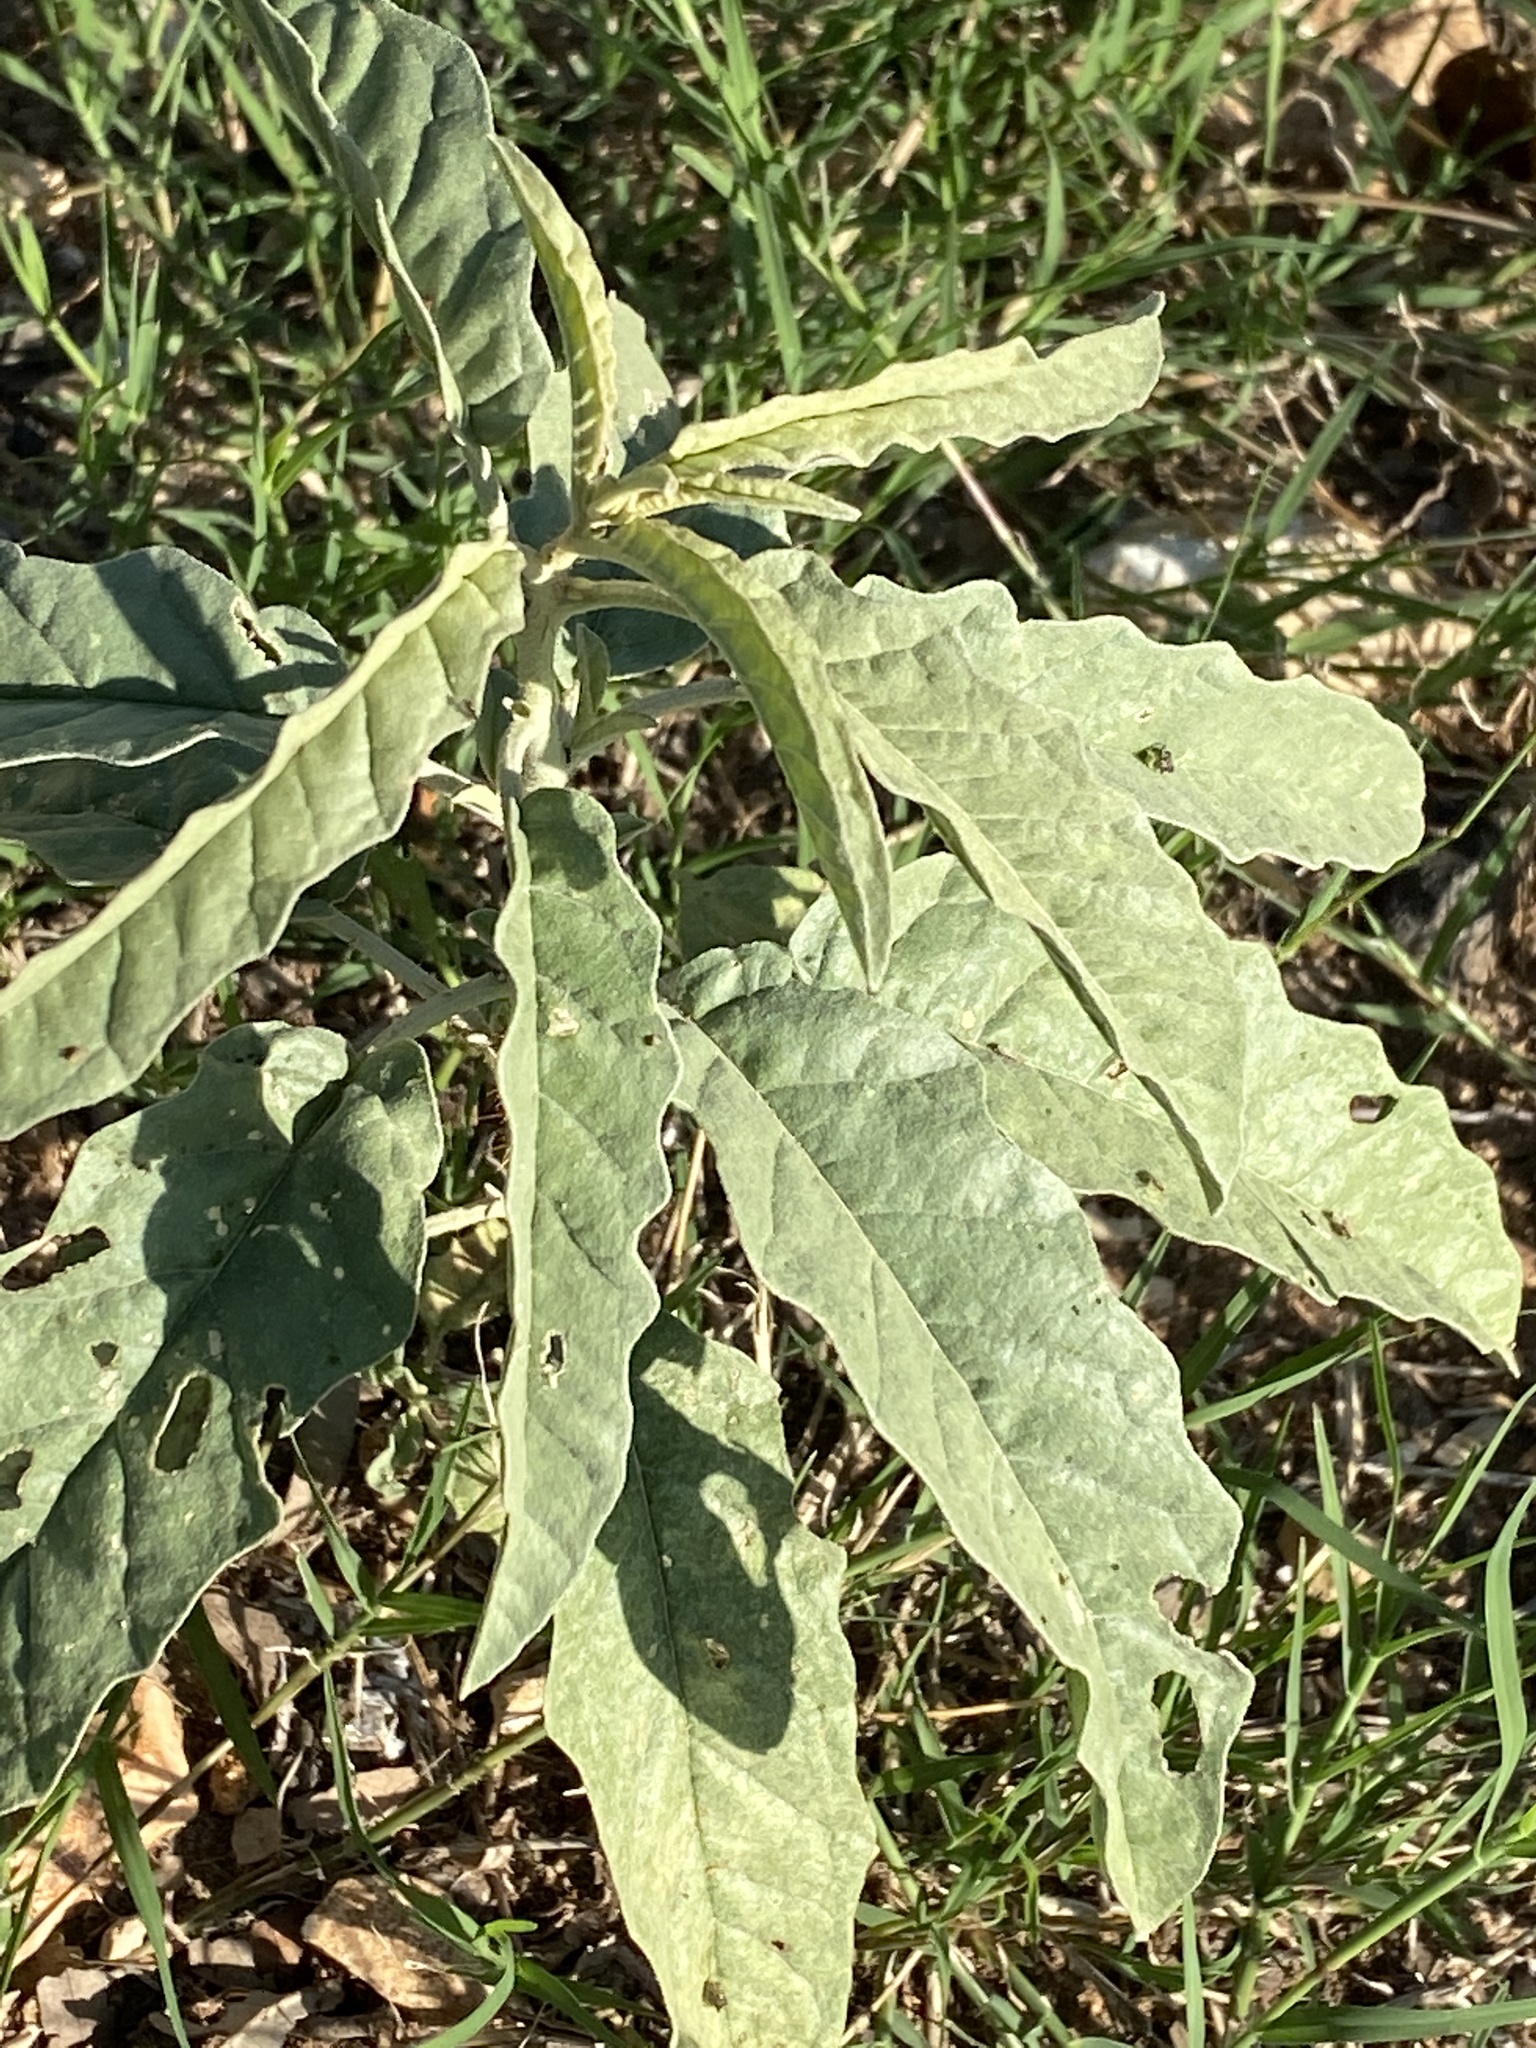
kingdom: Plantae
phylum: Tracheophyta
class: Magnoliopsida
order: Solanales
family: Solanaceae
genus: Solanum
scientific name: Solanum elaeagnifolium
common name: Silverleaf nightshade
